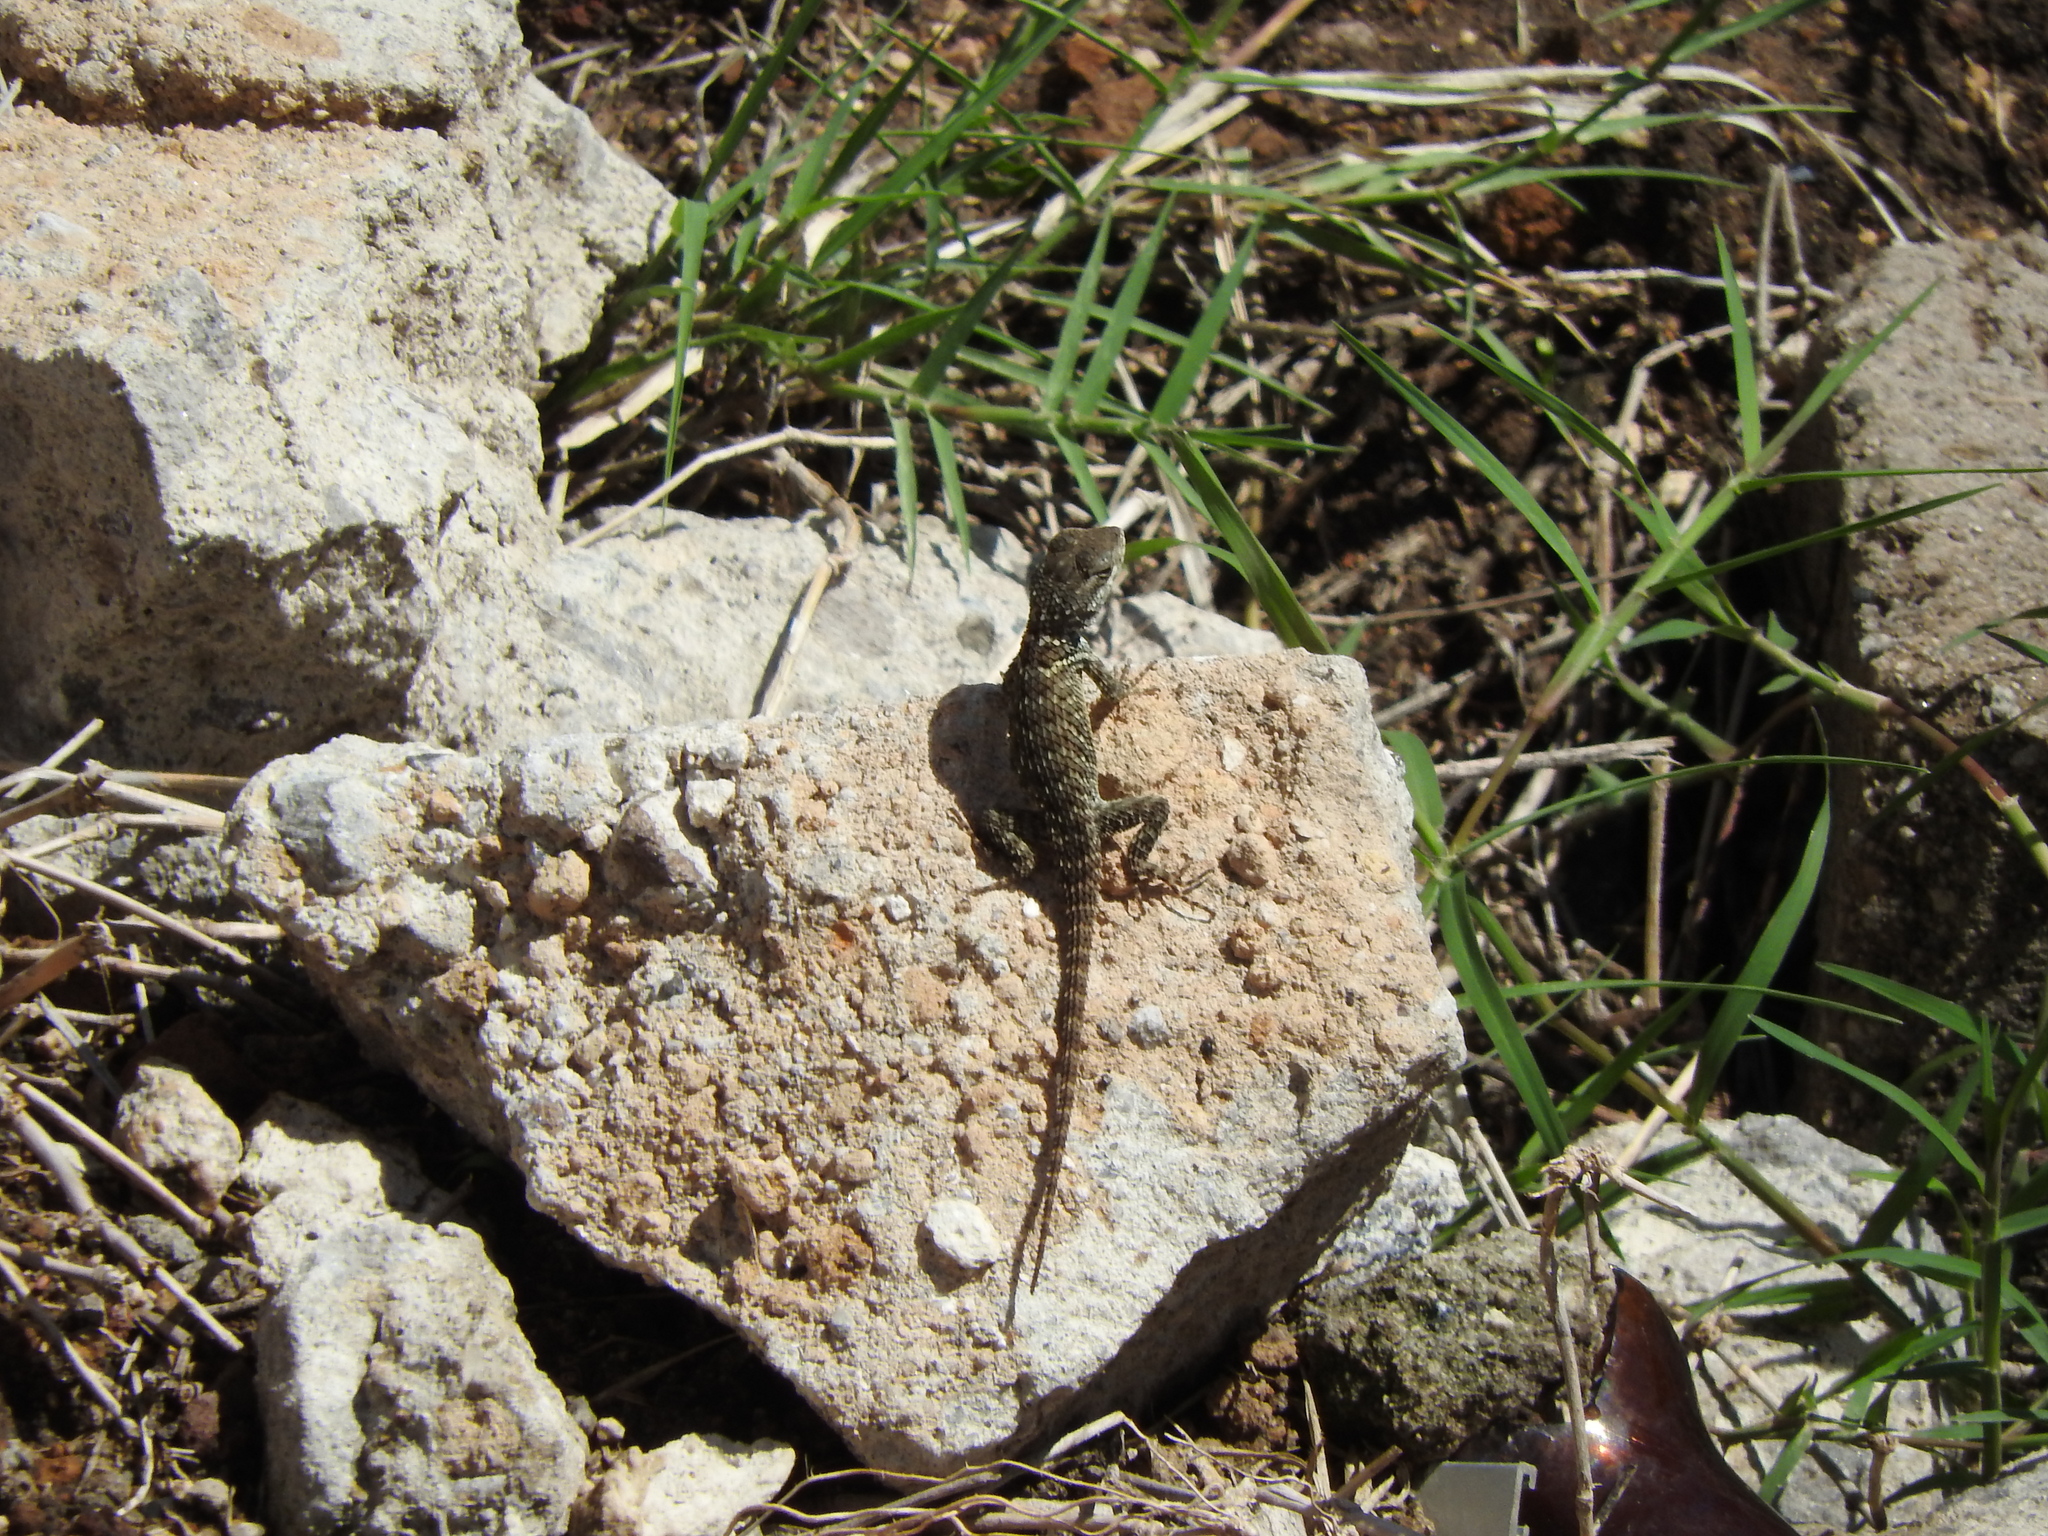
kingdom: Animalia
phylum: Chordata
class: Squamata
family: Phrynosomatidae
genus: Sceloporus
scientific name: Sceloporus torquatus
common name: Central plateau torquate lizard [melanogaster]
